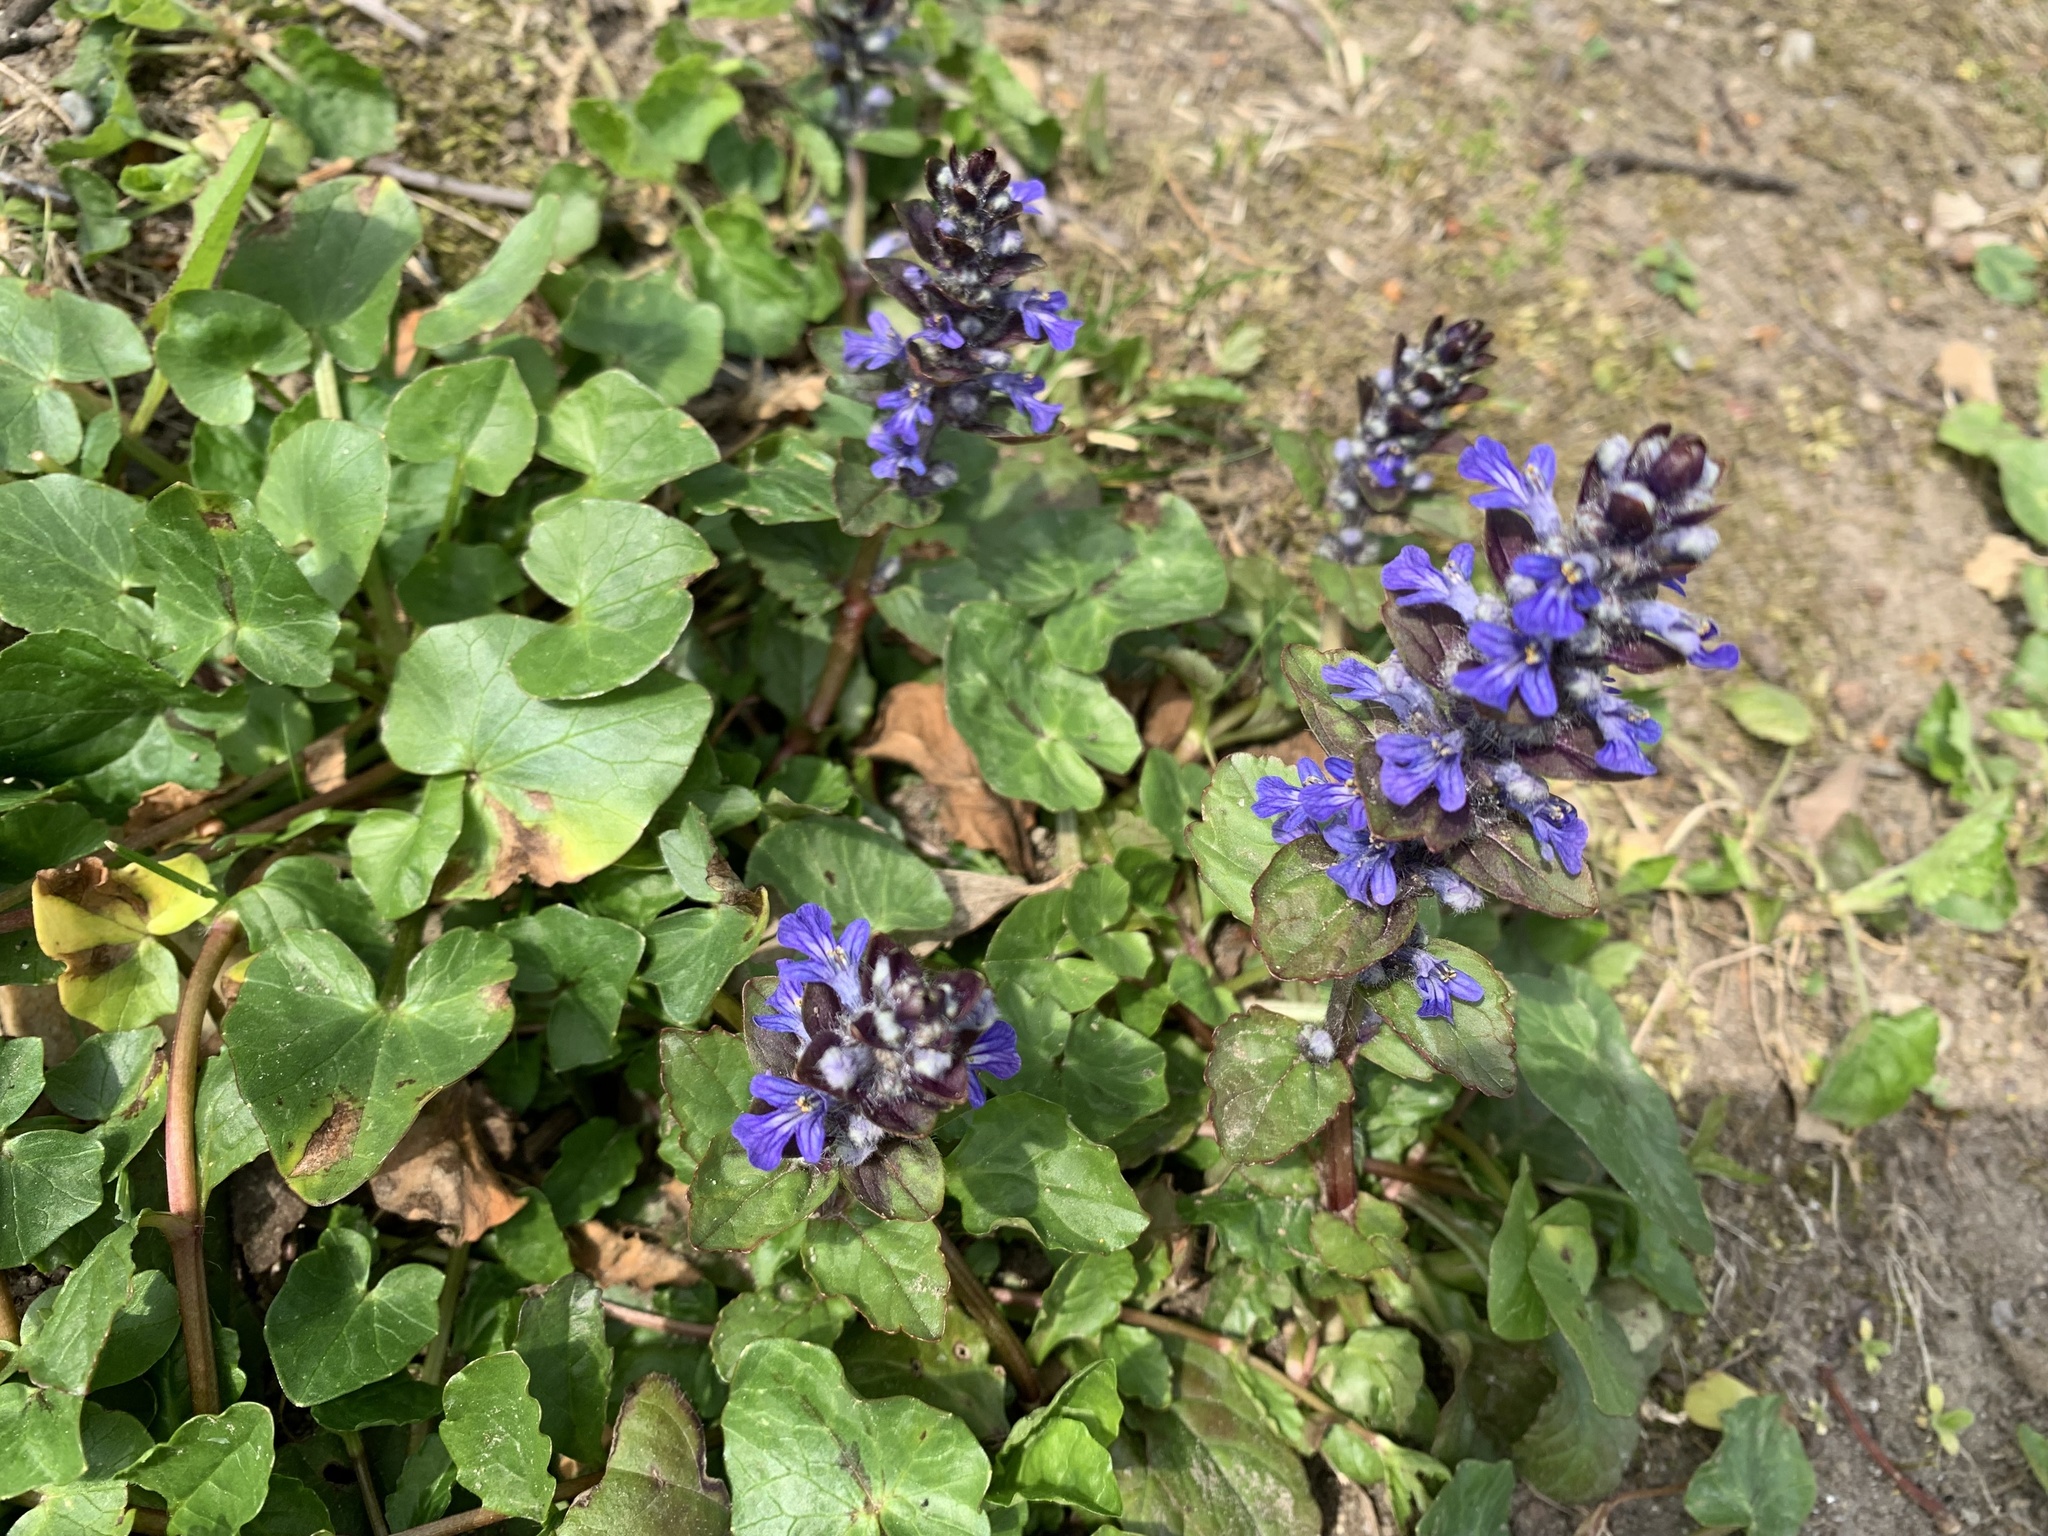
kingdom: Plantae
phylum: Tracheophyta
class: Magnoliopsida
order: Lamiales
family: Lamiaceae
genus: Ajuga
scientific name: Ajuga reptans
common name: Bugle
